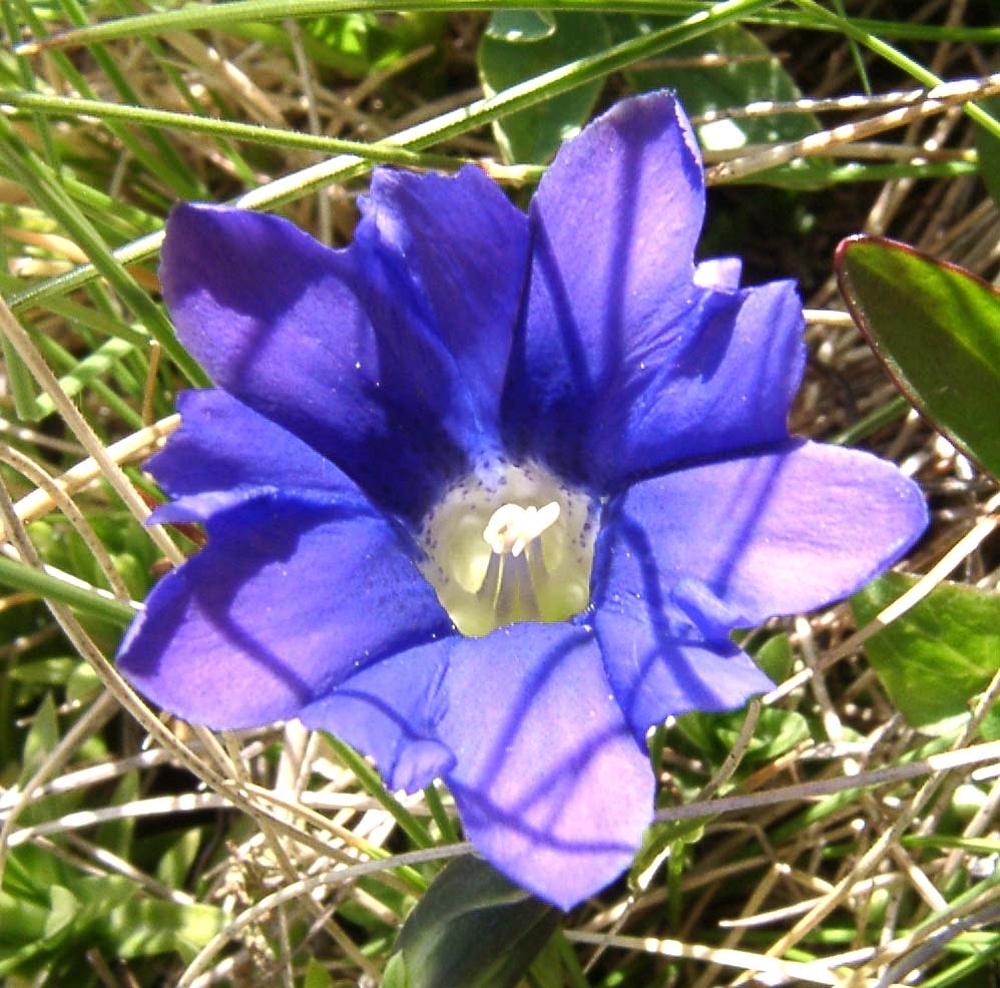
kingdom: Plantae
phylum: Tracheophyta
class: Magnoliopsida
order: Gentianales
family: Gentianaceae
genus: Gentiana
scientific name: Gentiana pyrenaica
